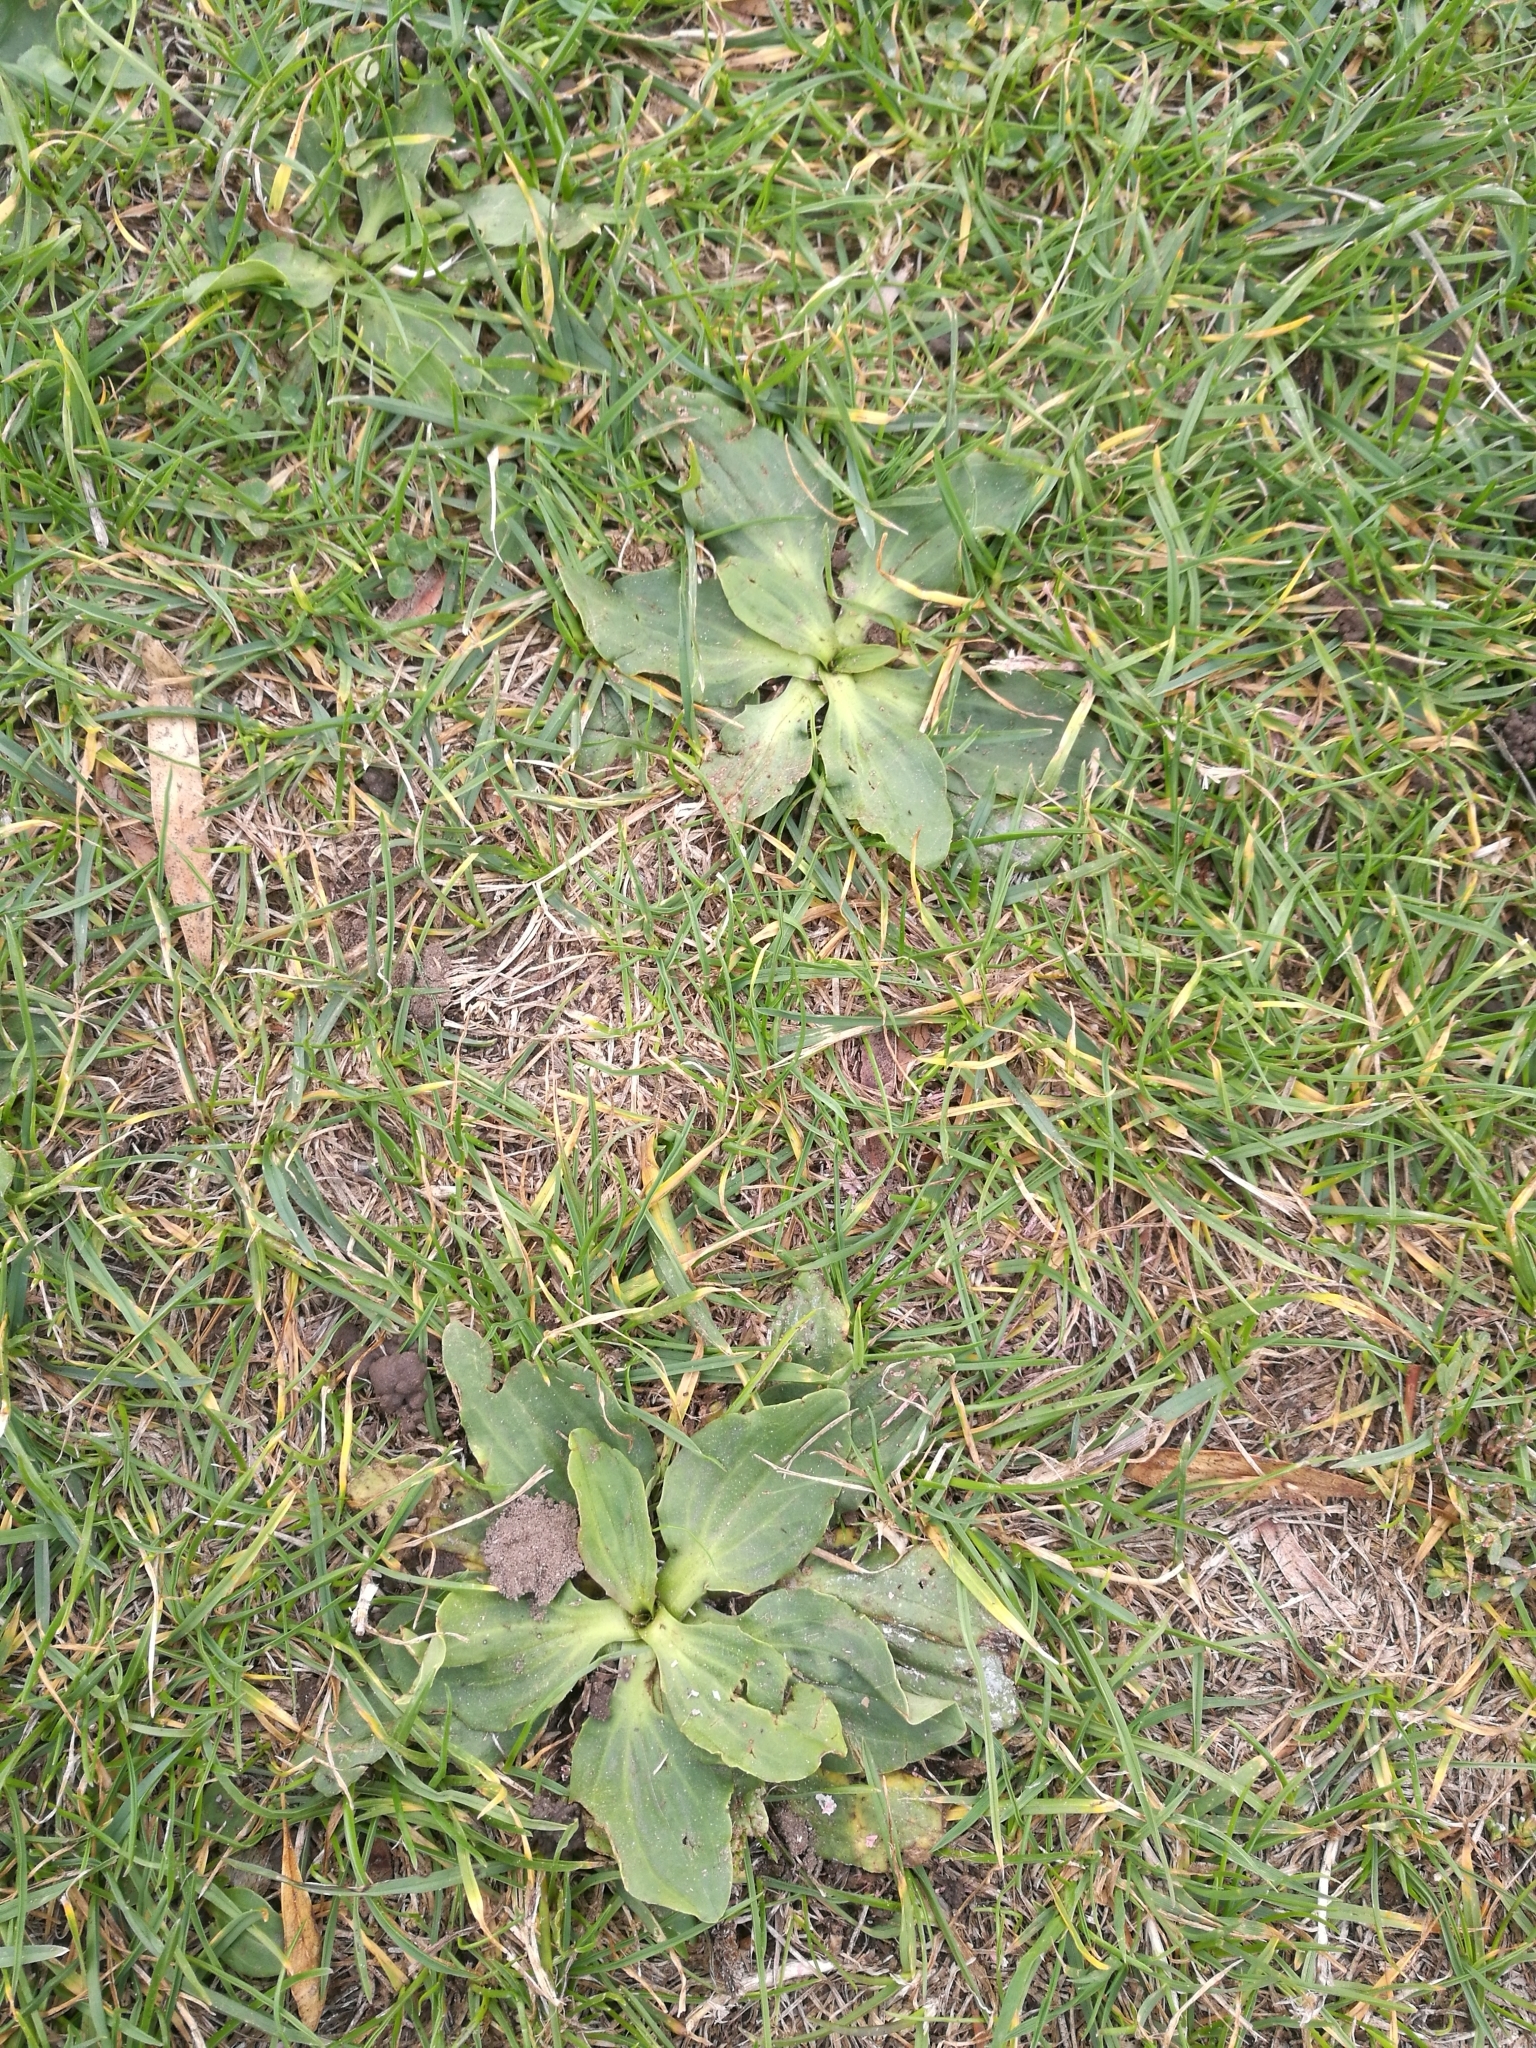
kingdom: Plantae
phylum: Tracheophyta
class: Magnoliopsida
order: Lamiales
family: Plantaginaceae
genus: Plantago
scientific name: Plantago major
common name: Common plantain
